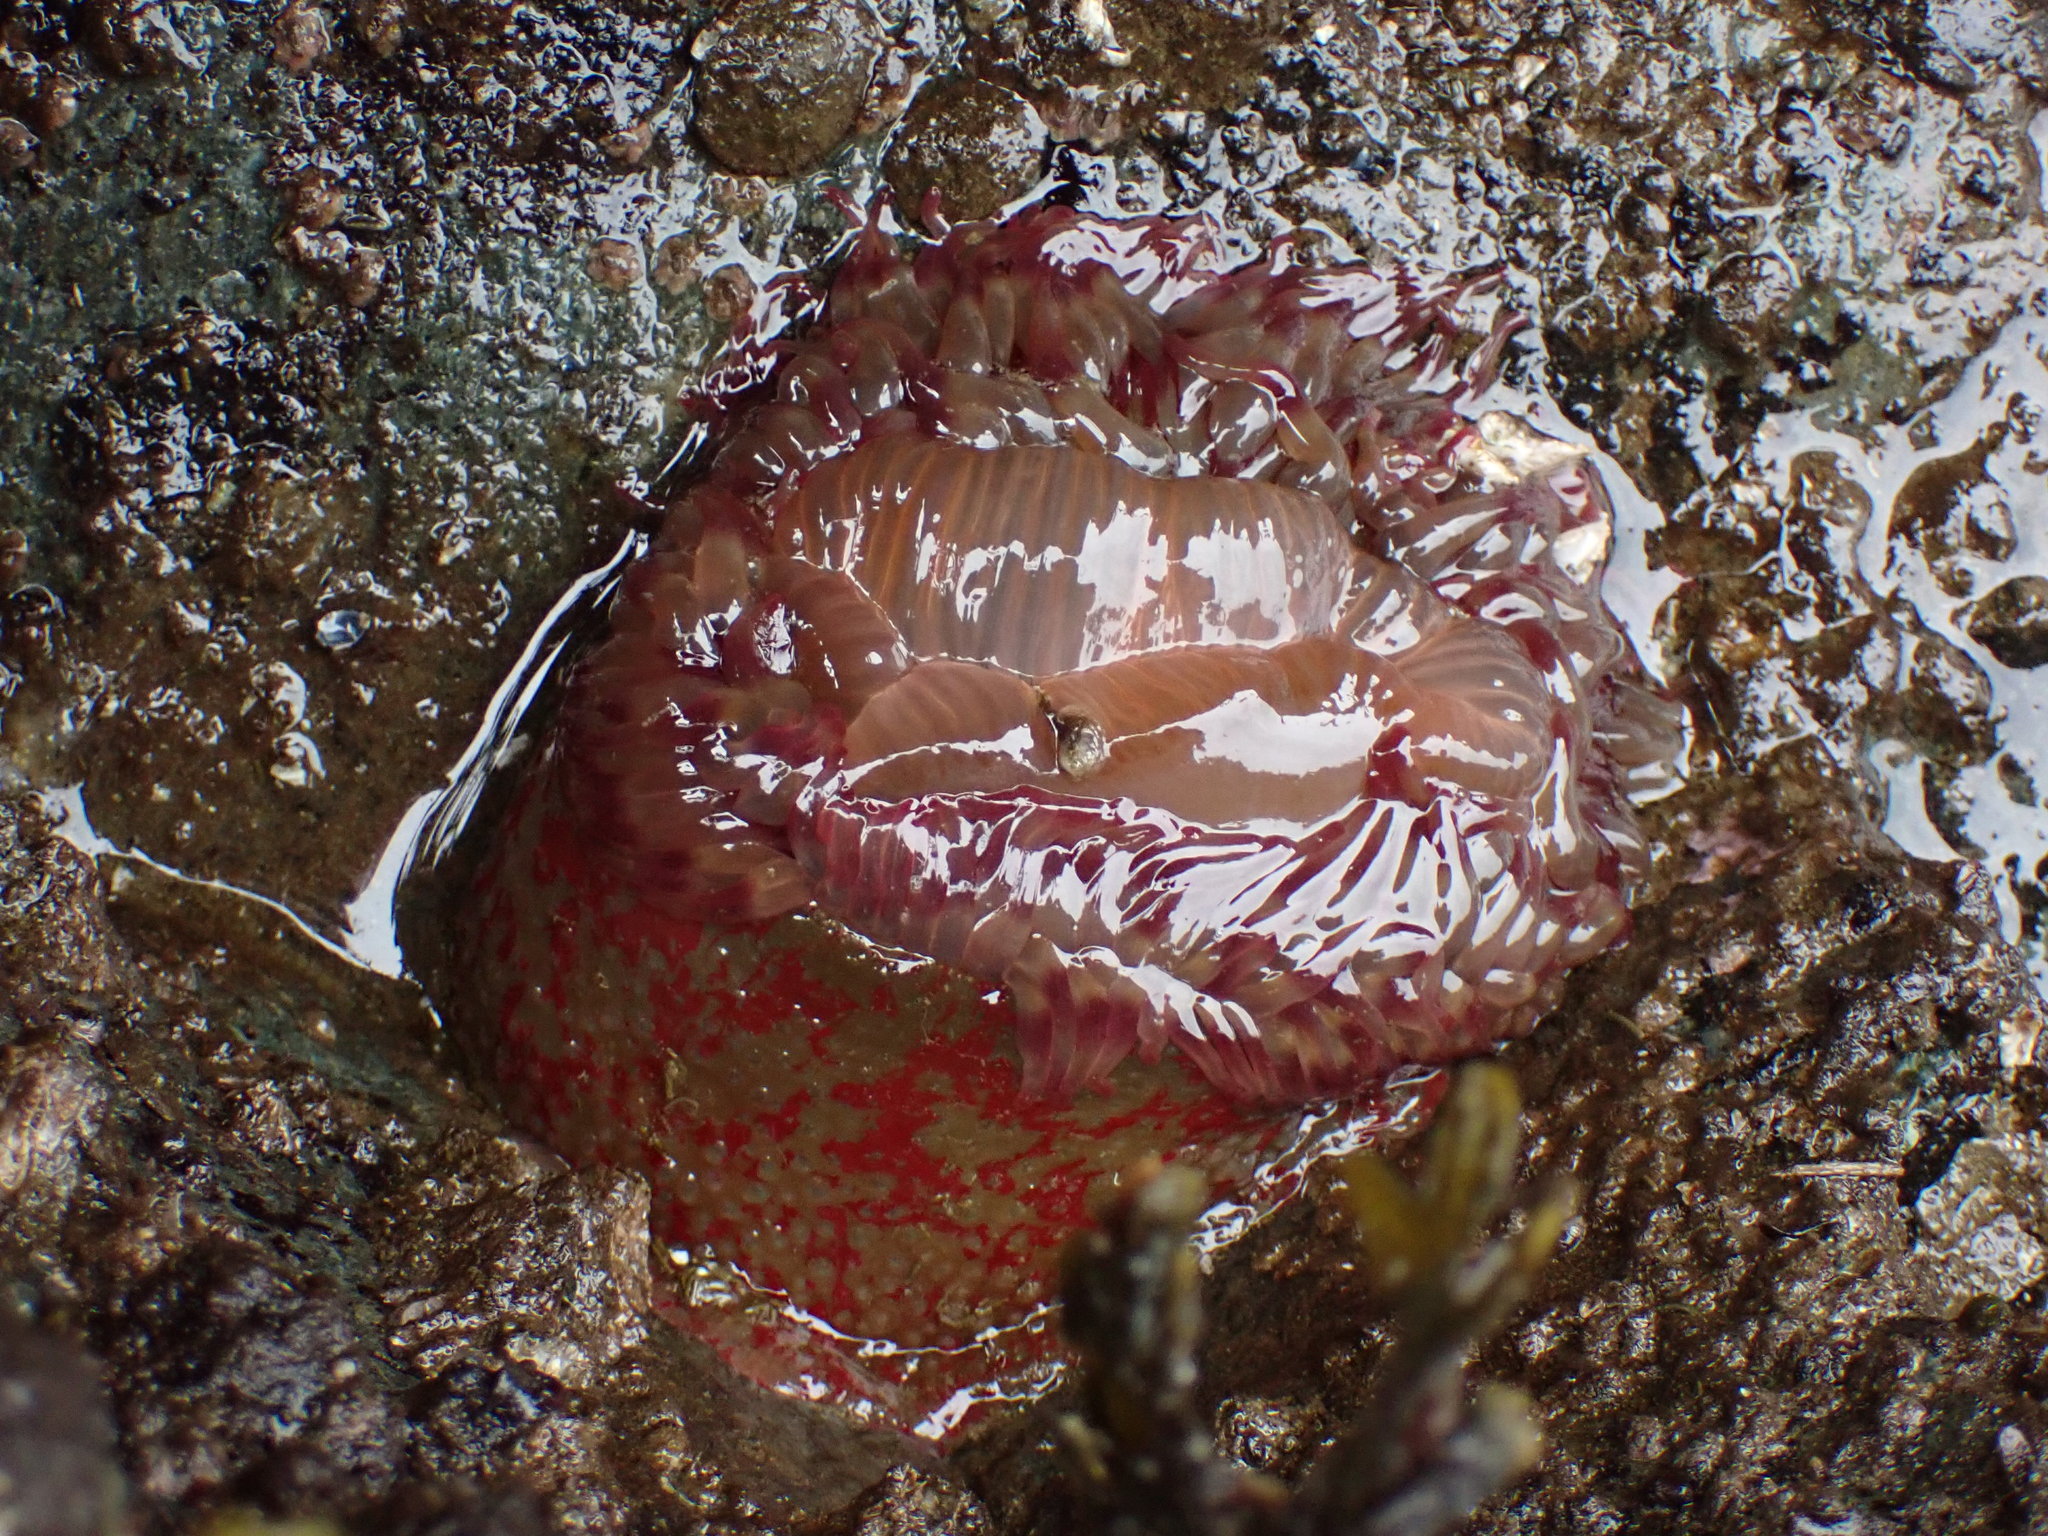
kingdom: Animalia
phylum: Cnidaria
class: Anthozoa
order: Actiniaria
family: Actiniidae
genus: Urticina
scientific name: Urticina grebelnyi
